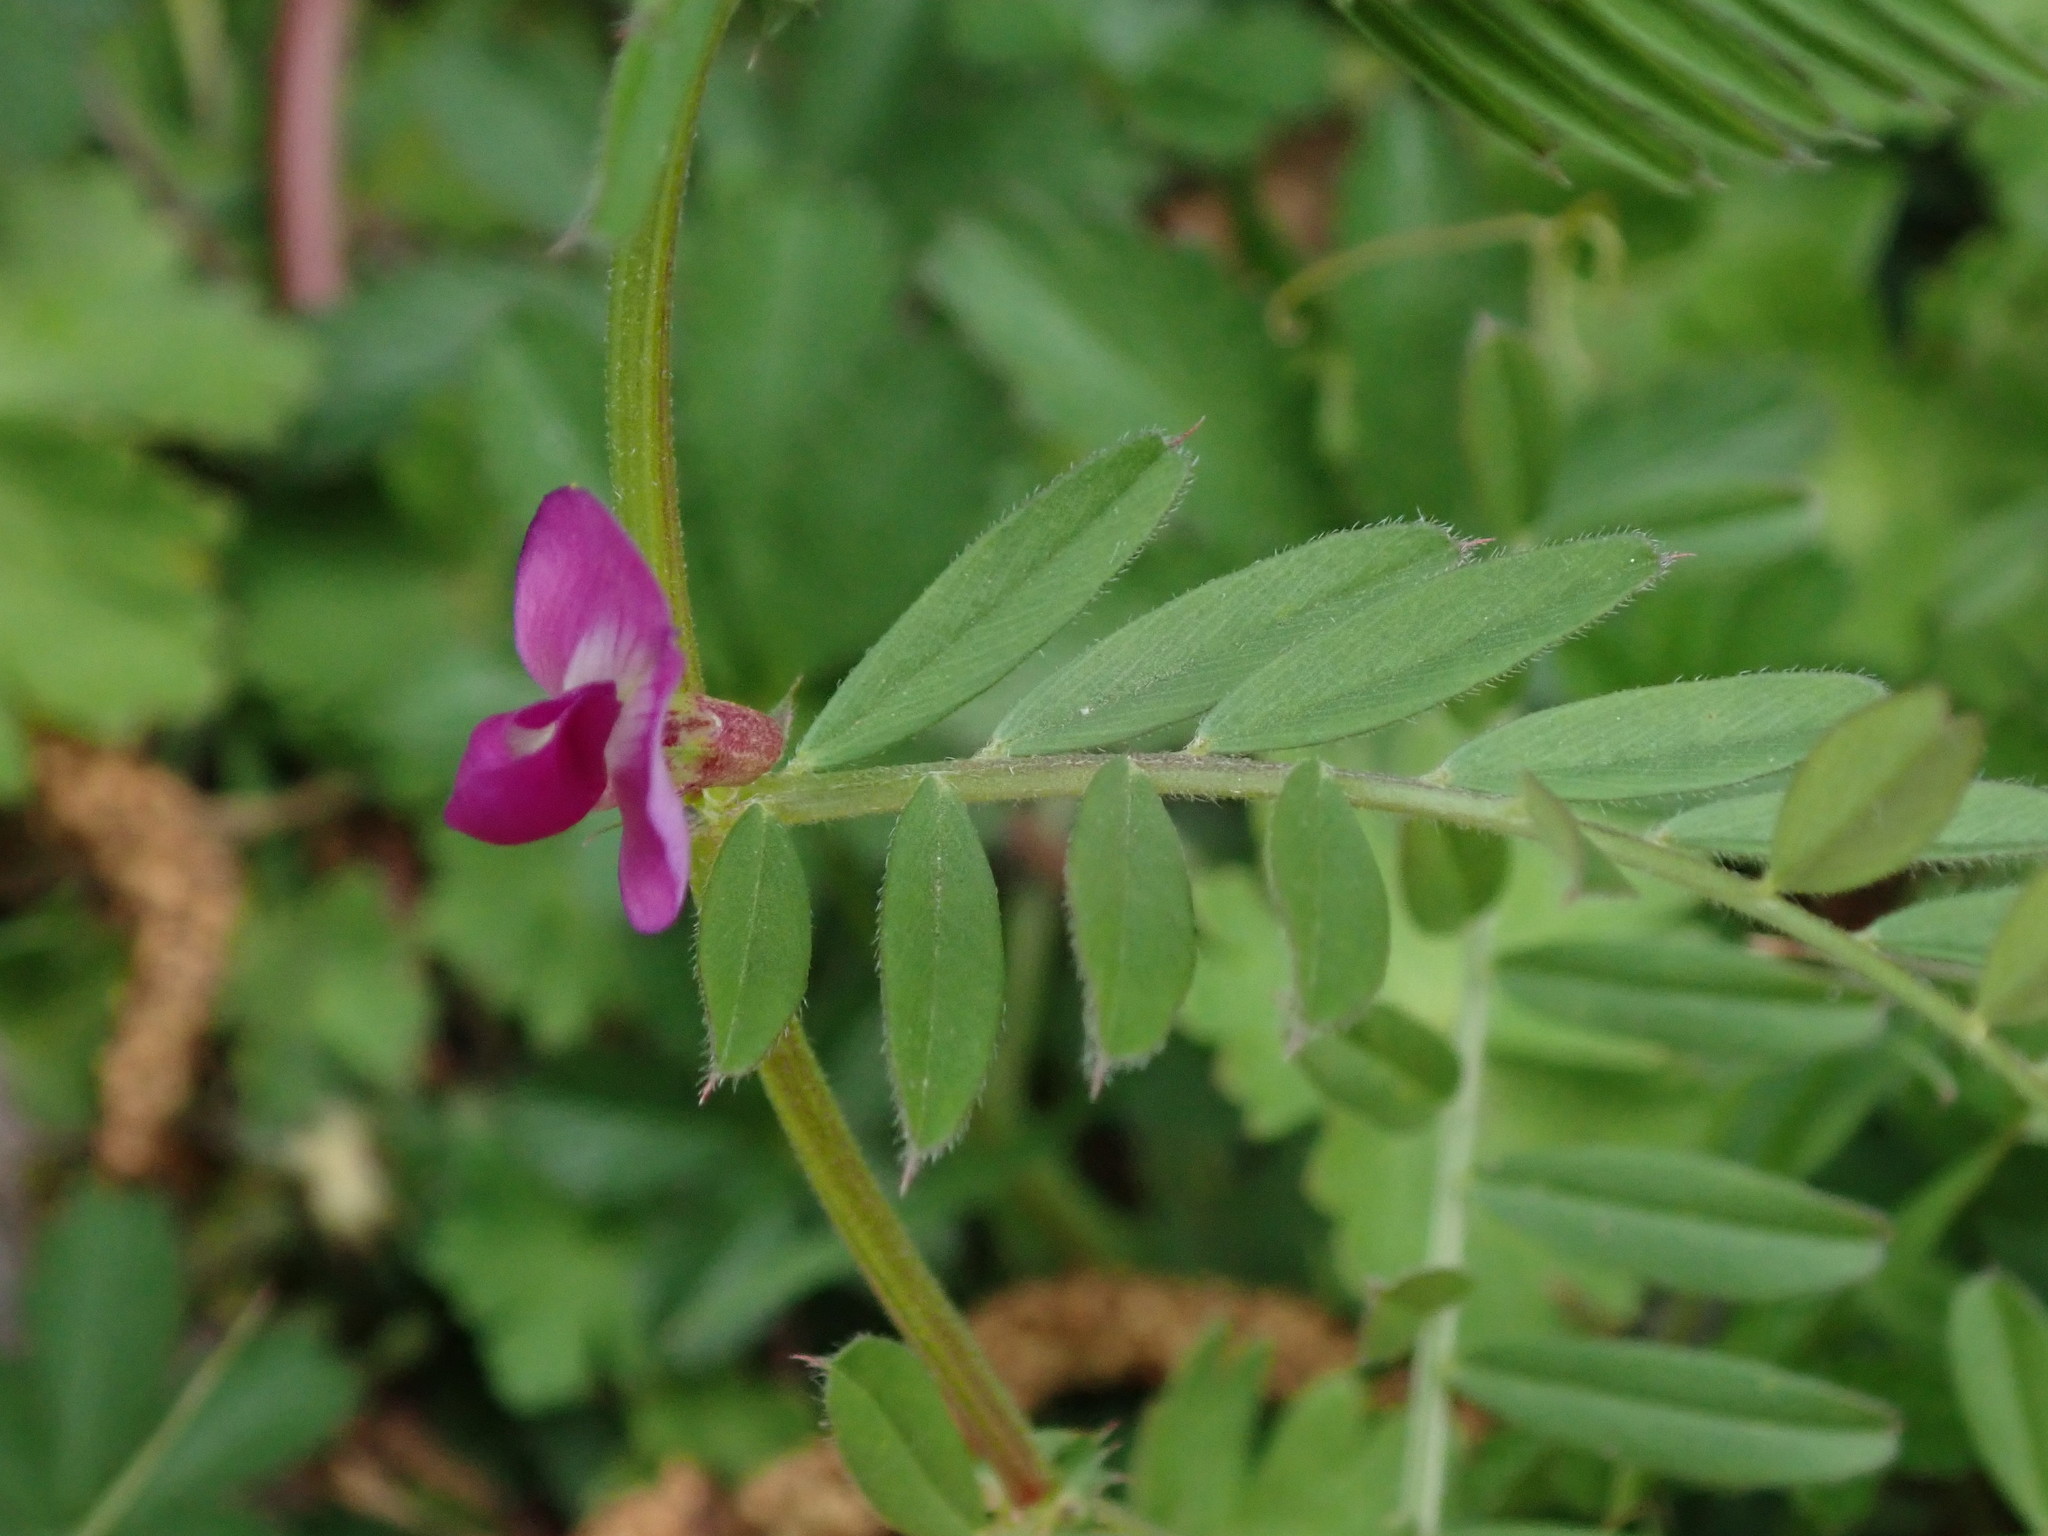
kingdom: Plantae
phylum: Tracheophyta
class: Magnoliopsida
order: Fabales
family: Fabaceae
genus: Vicia
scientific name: Vicia sativa
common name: Garden vetch
